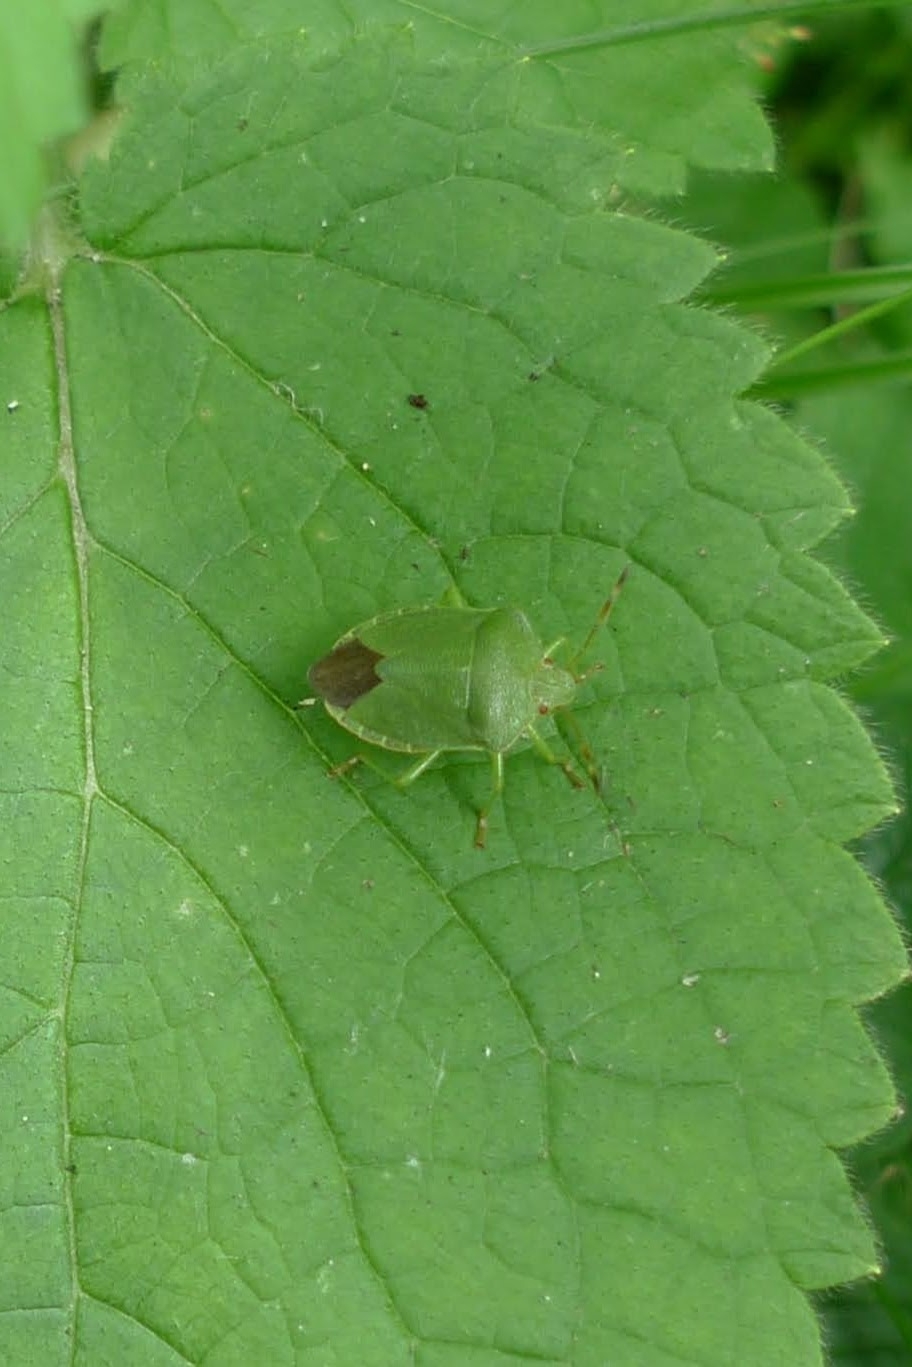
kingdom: Animalia
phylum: Arthropoda
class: Insecta
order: Hemiptera
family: Pentatomidae
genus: Palomena
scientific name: Palomena prasina
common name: Green shieldbug
